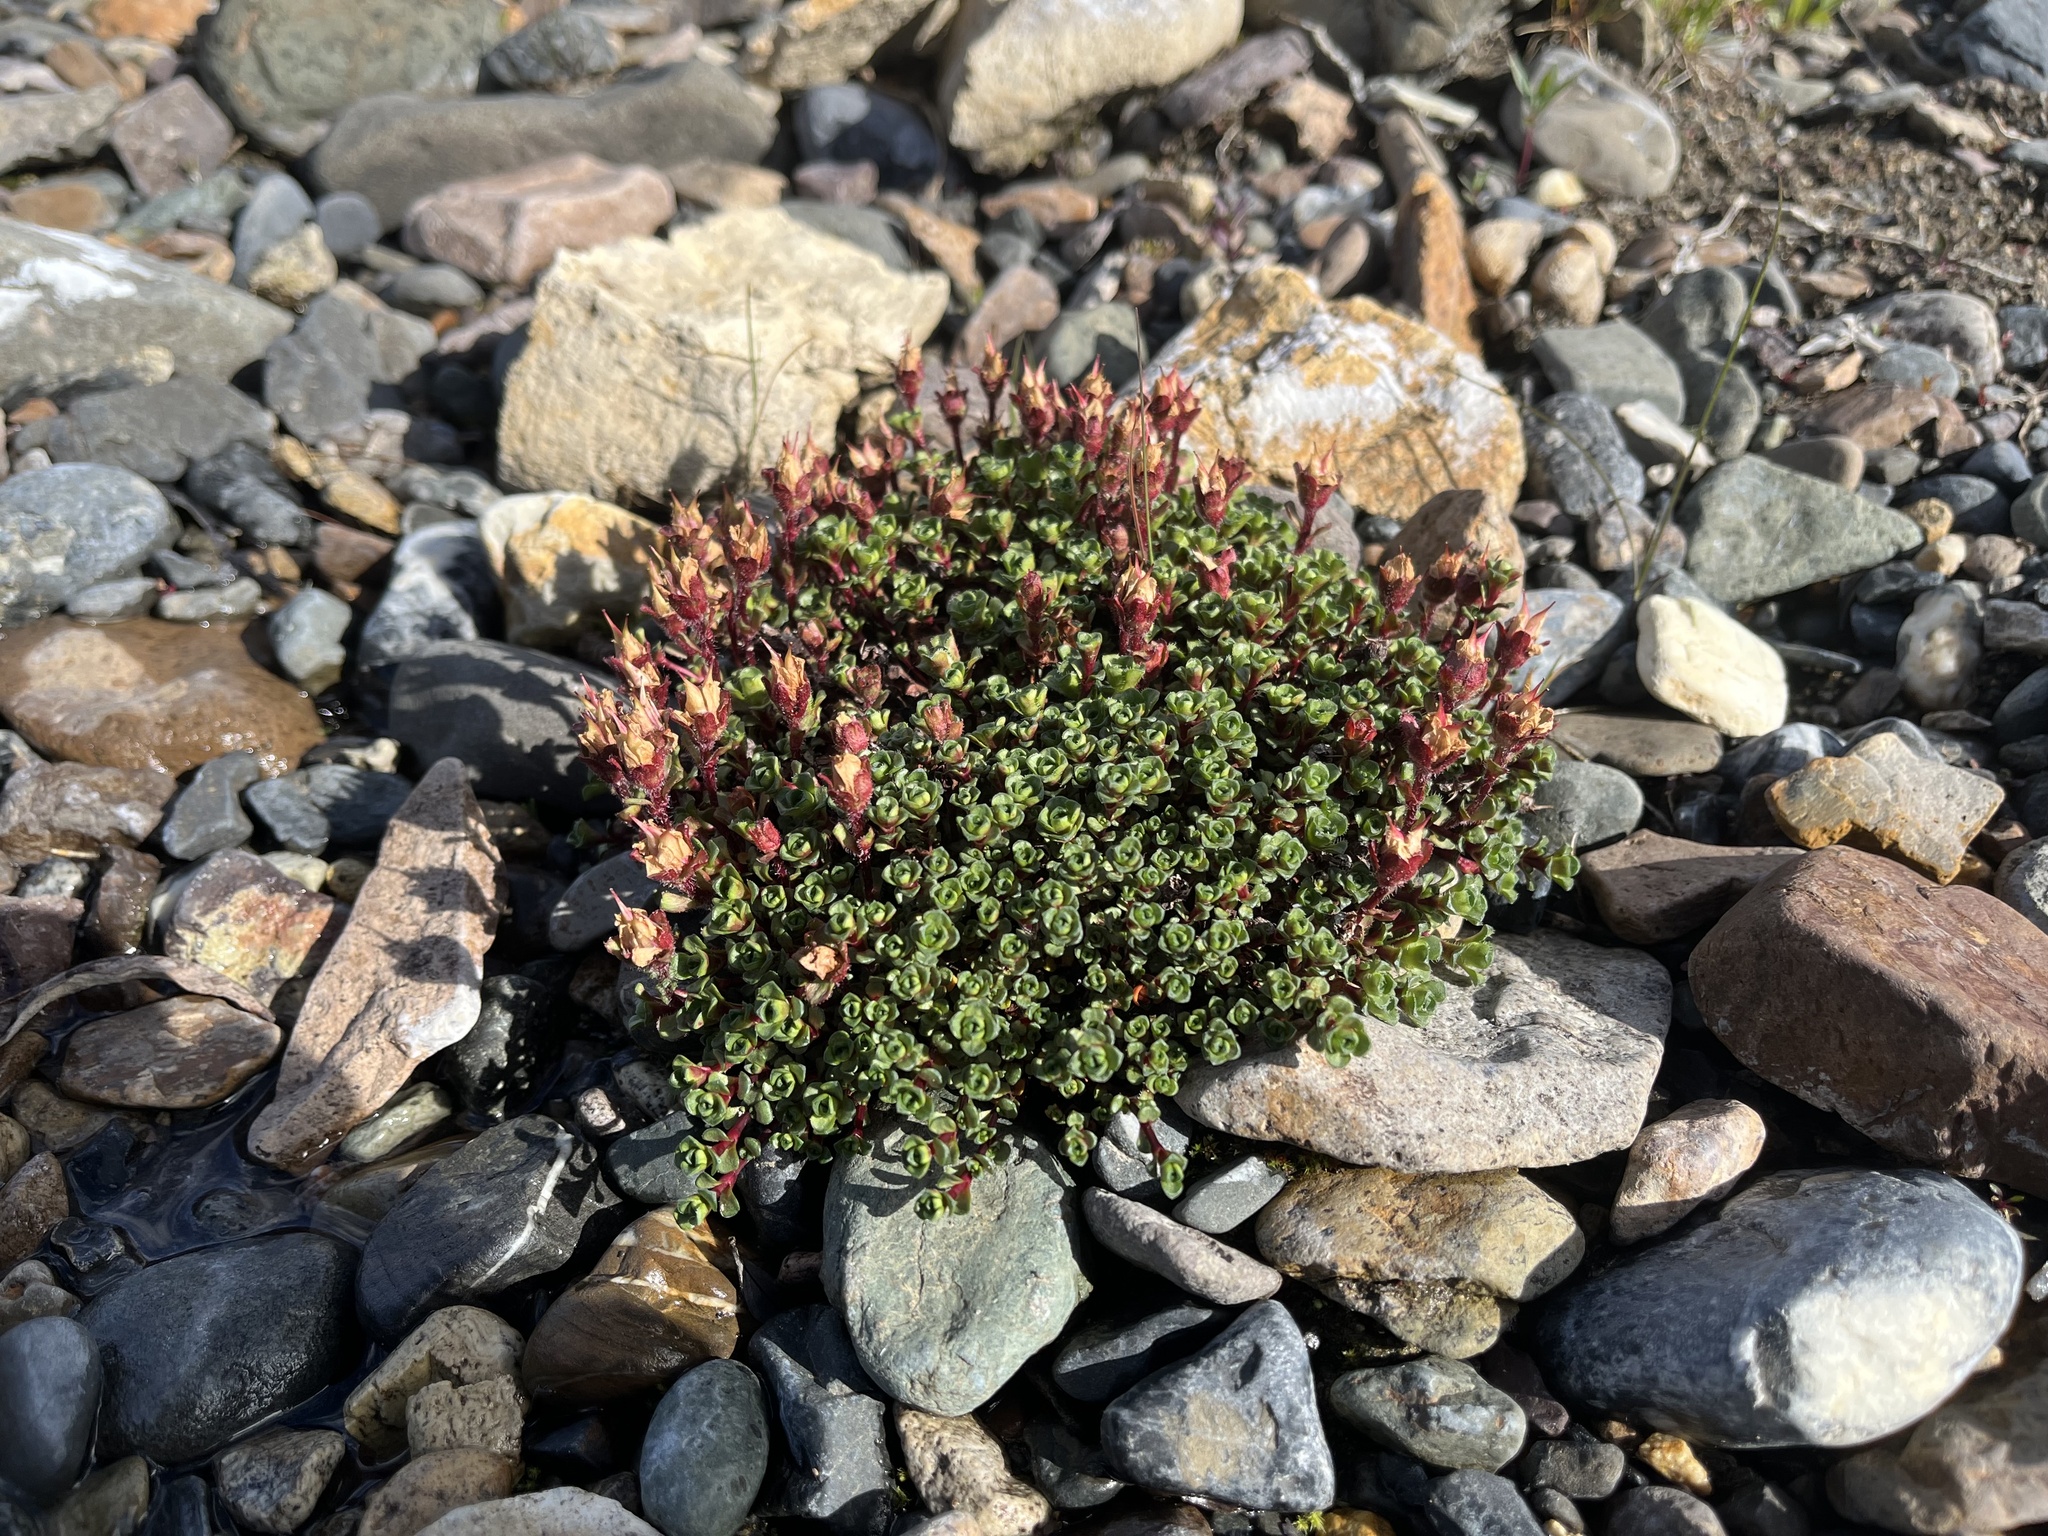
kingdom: Plantae
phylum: Tracheophyta
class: Magnoliopsida
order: Saxifragales
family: Saxifragaceae
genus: Saxifraga
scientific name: Saxifraga oppositifolia
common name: Purple saxifrage
